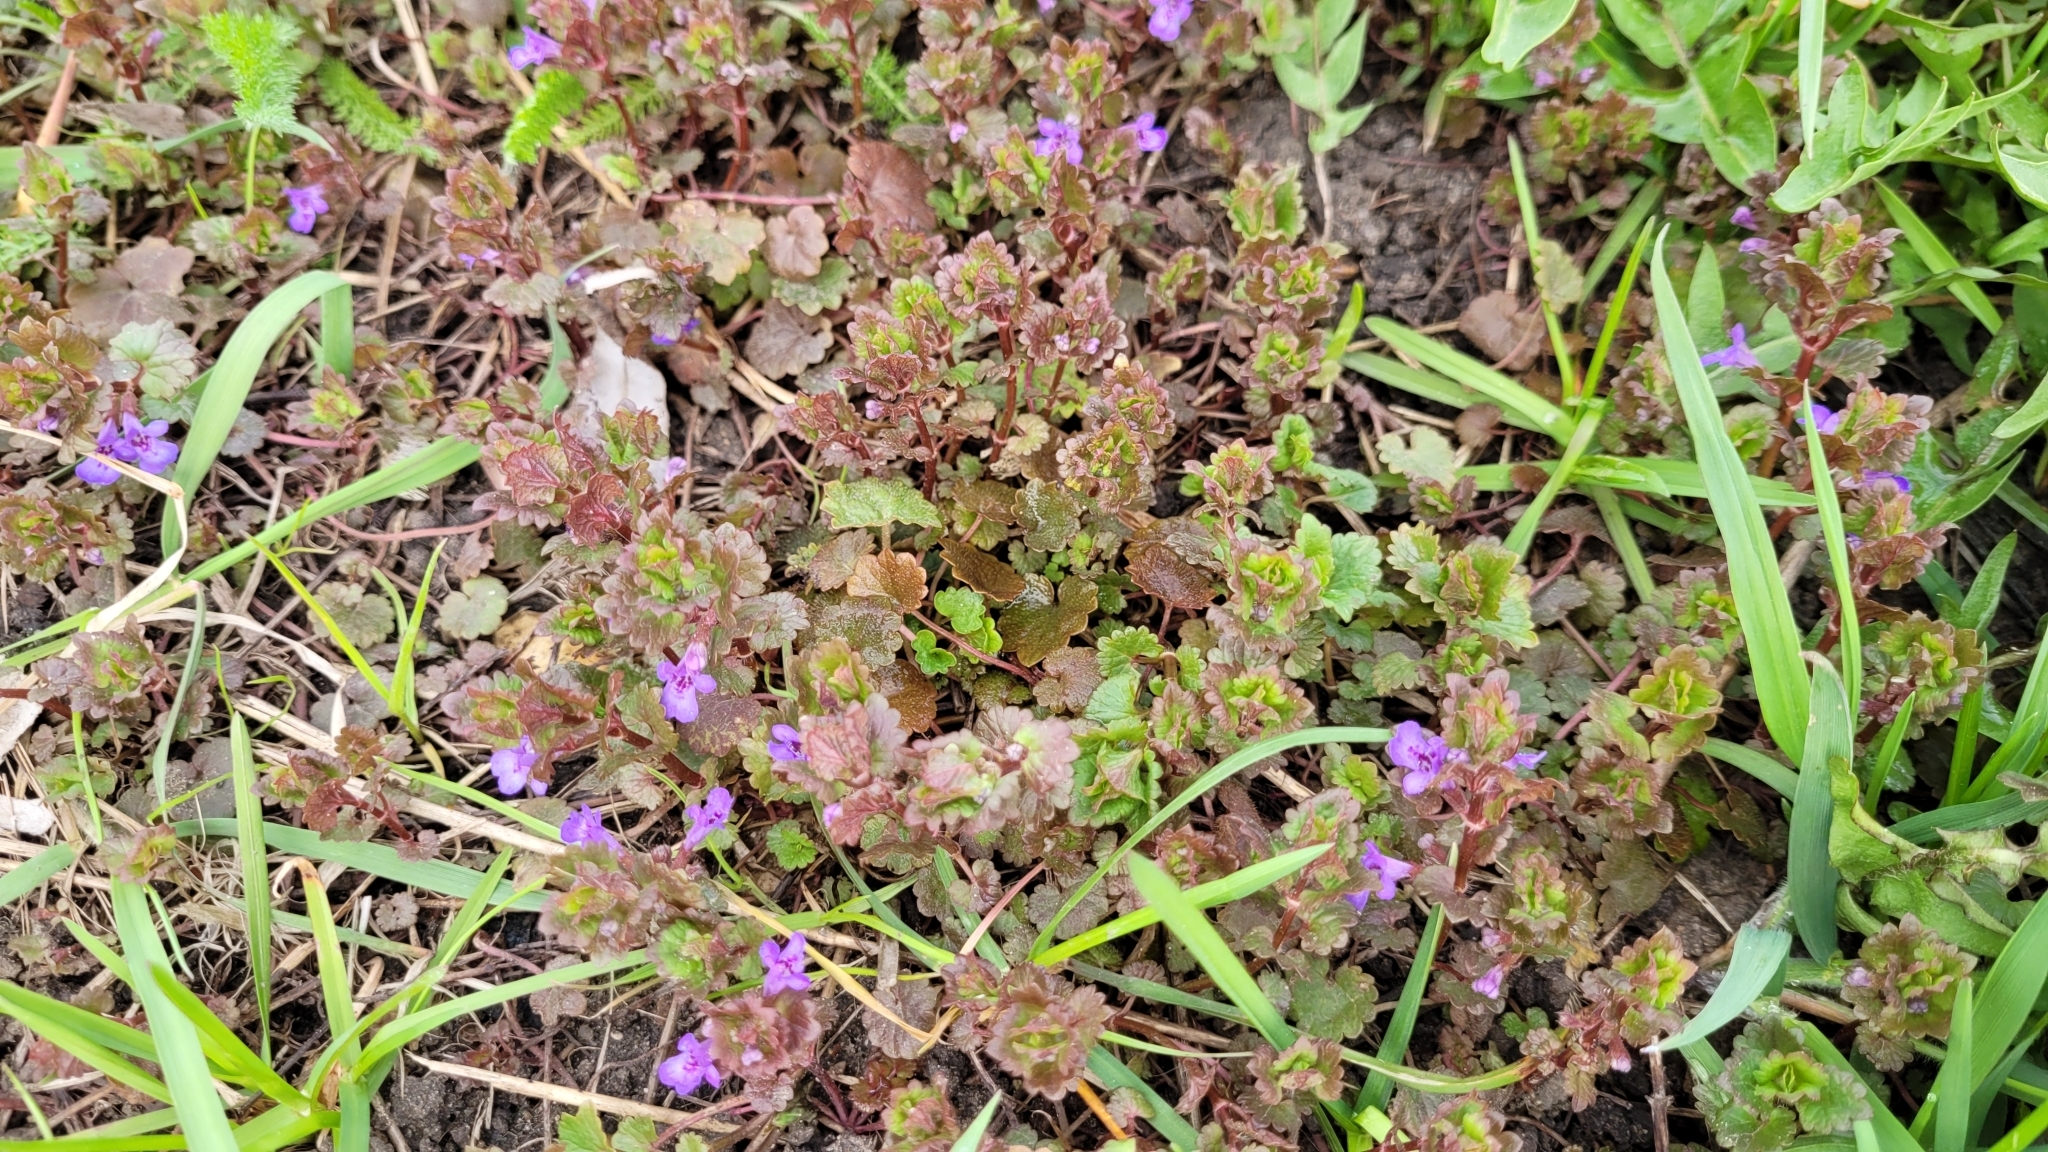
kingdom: Plantae
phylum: Tracheophyta
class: Magnoliopsida
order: Lamiales
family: Lamiaceae
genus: Glechoma
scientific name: Glechoma hederacea
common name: Ground ivy
